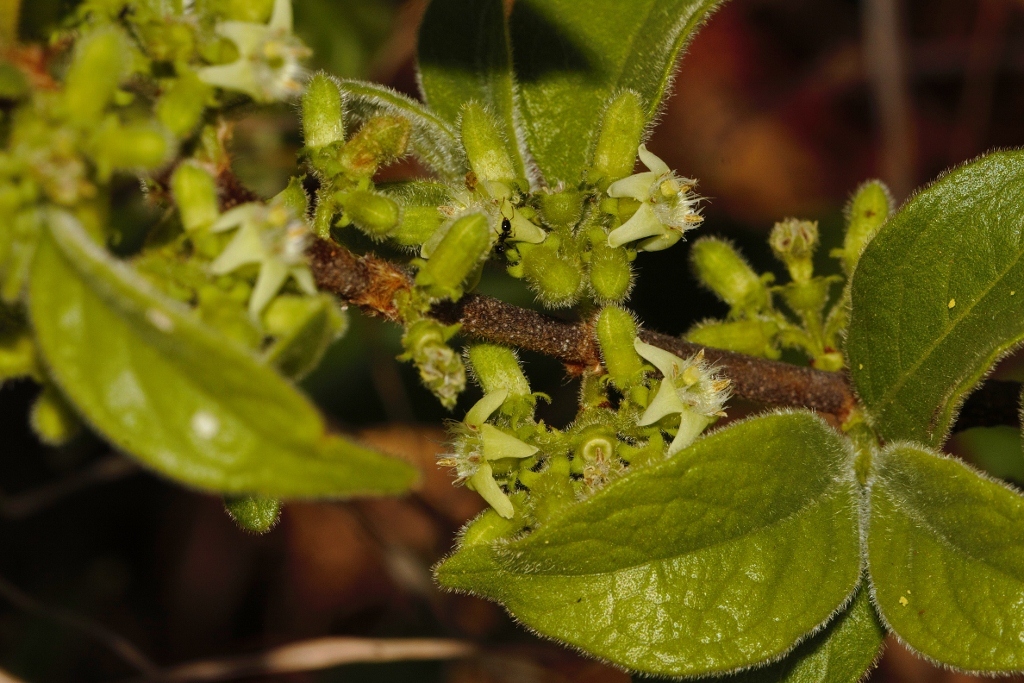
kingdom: Plantae
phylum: Tracheophyta
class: Magnoliopsida
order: Gentianales
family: Rubiaceae
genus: Vangueria
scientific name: Vangueria infausta
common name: Medlar
